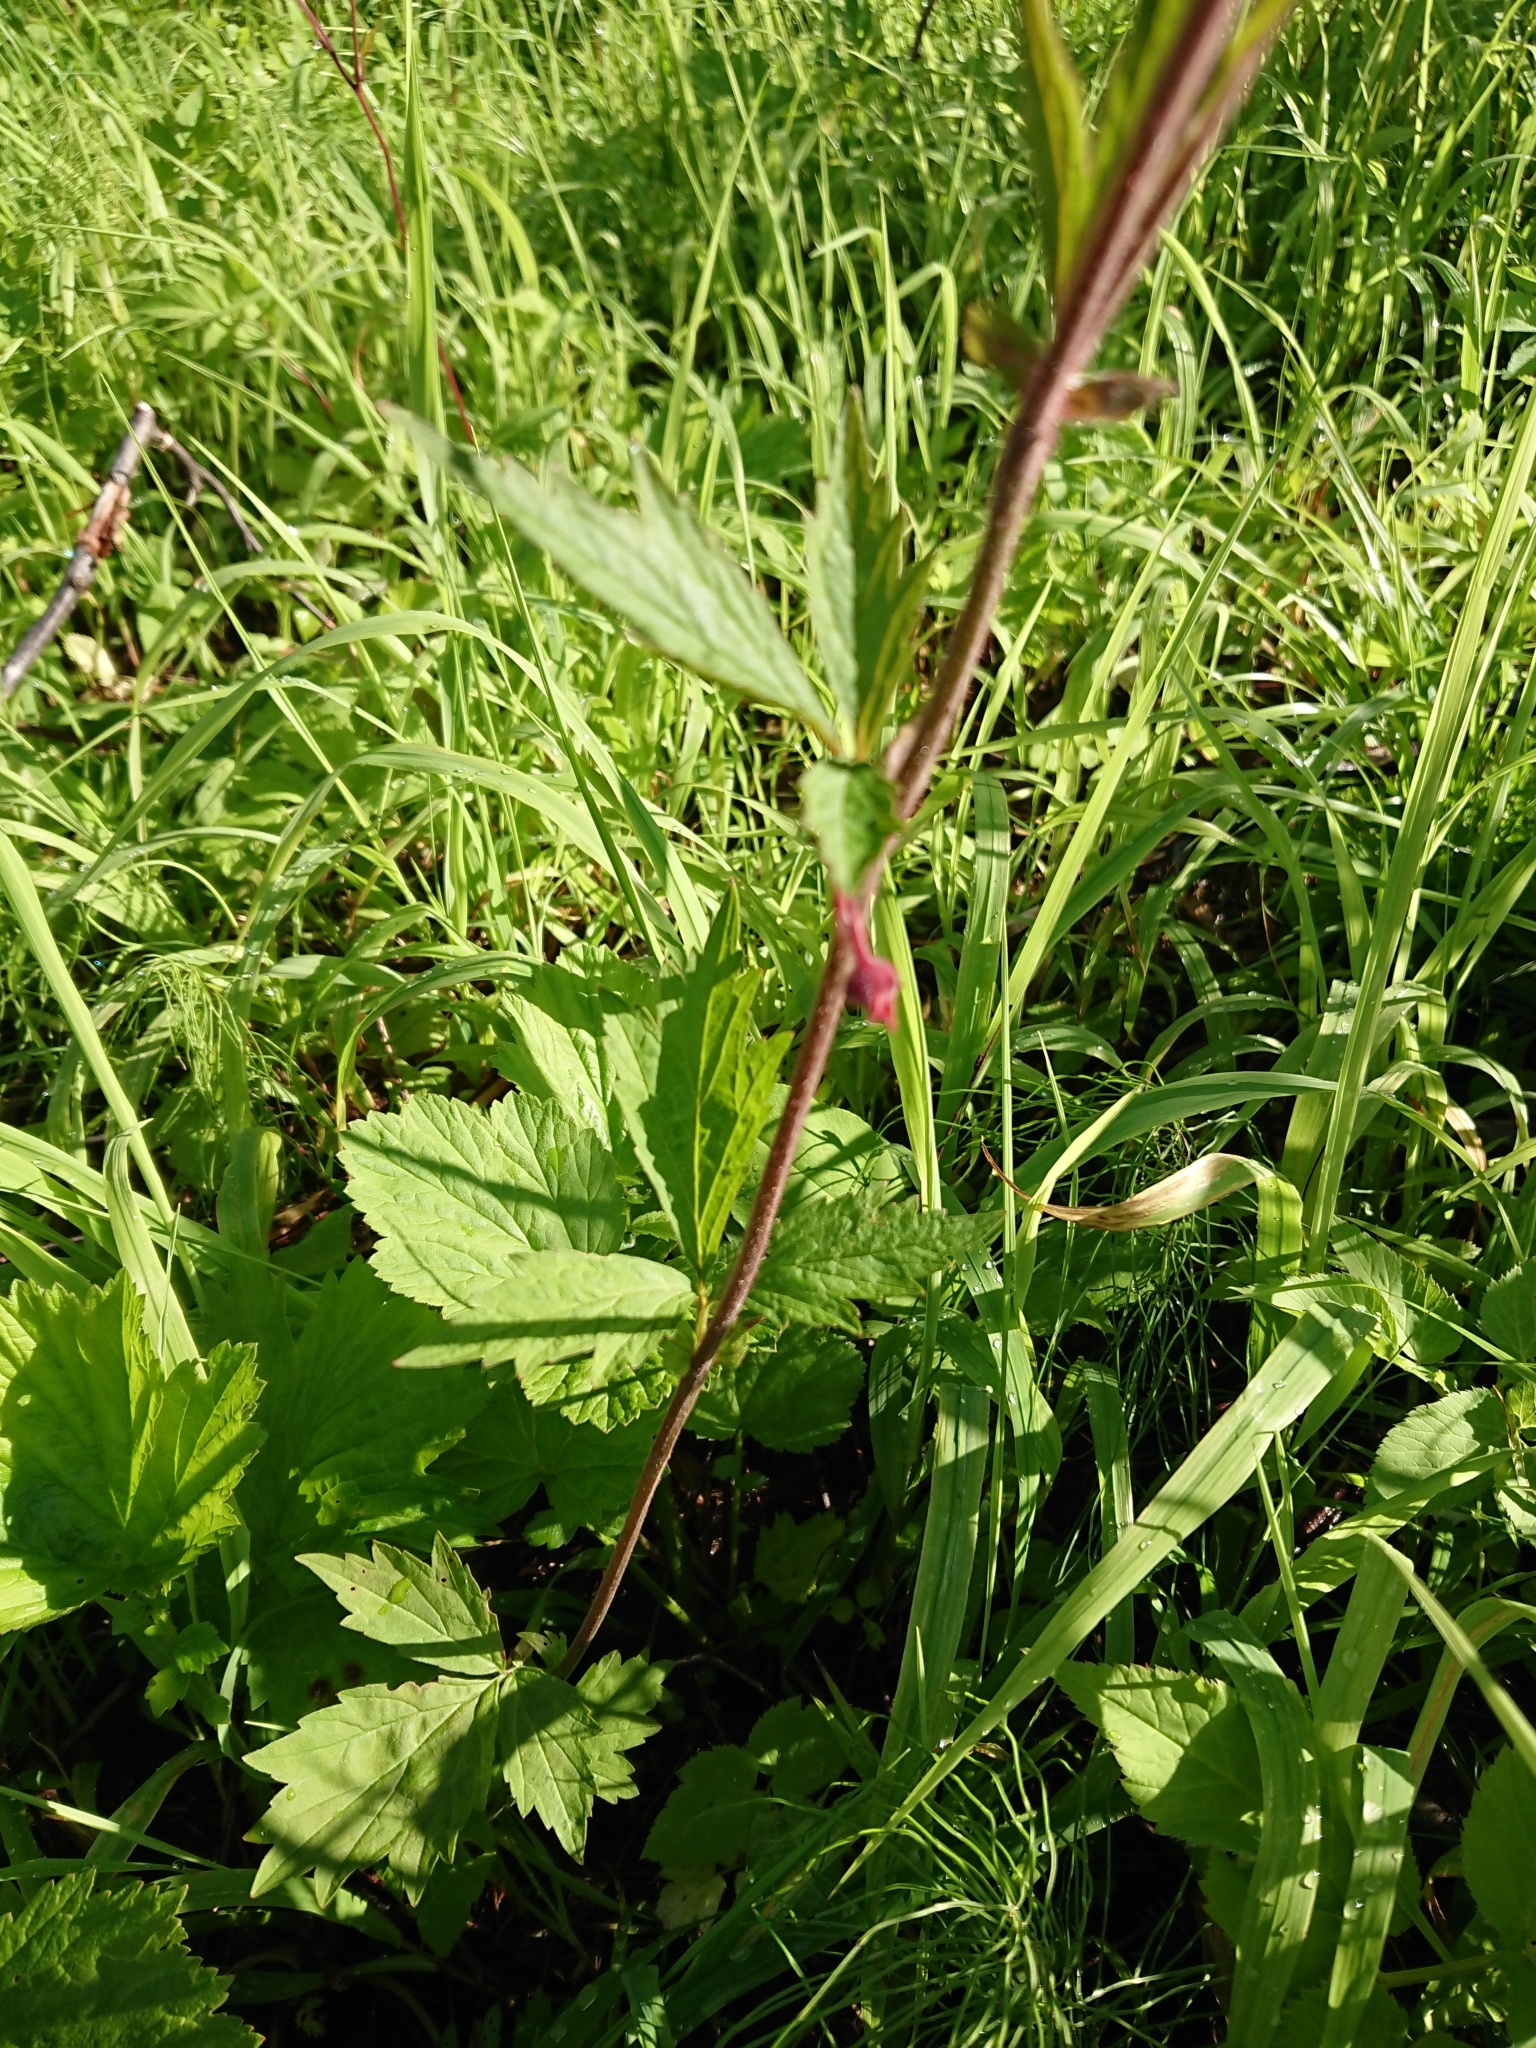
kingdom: Plantae
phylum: Tracheophyta
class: Magnoliopsida
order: Rosales
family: Rosaceae
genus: Geum
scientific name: Geum rivale
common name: Water avens
